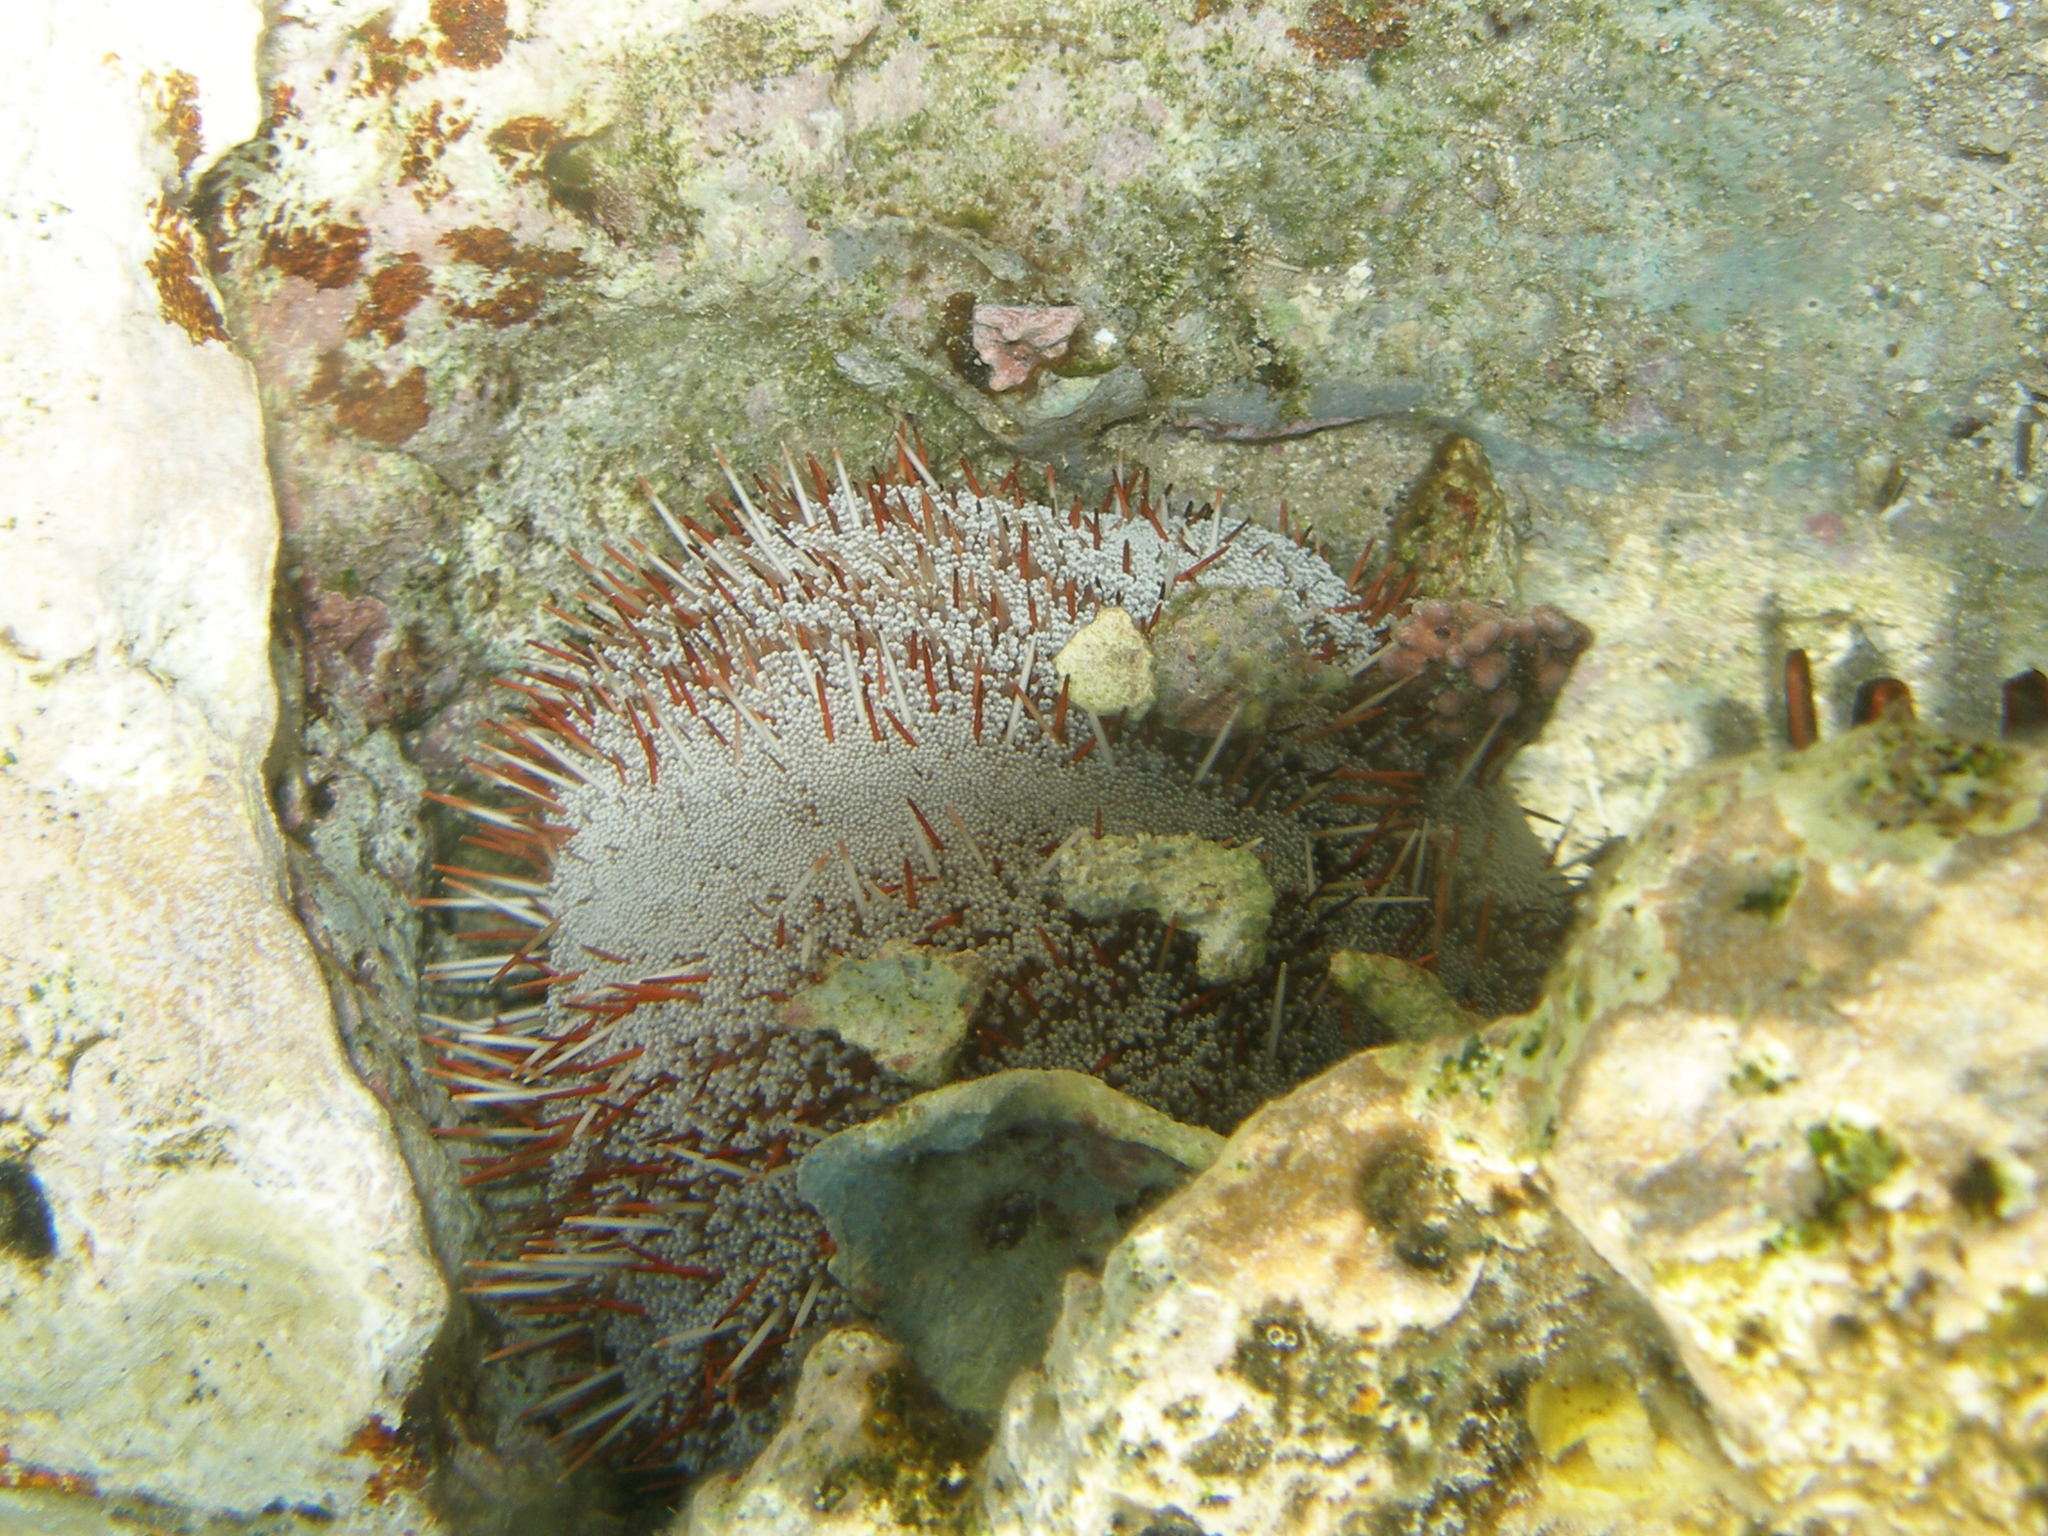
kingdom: Animalia
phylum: Echinodermata
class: Echinoidea
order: Camarodonta
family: Toxopneustidae
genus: Tripneustes
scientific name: Tripneustes gratilla
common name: Bischofsmützenseeigel
